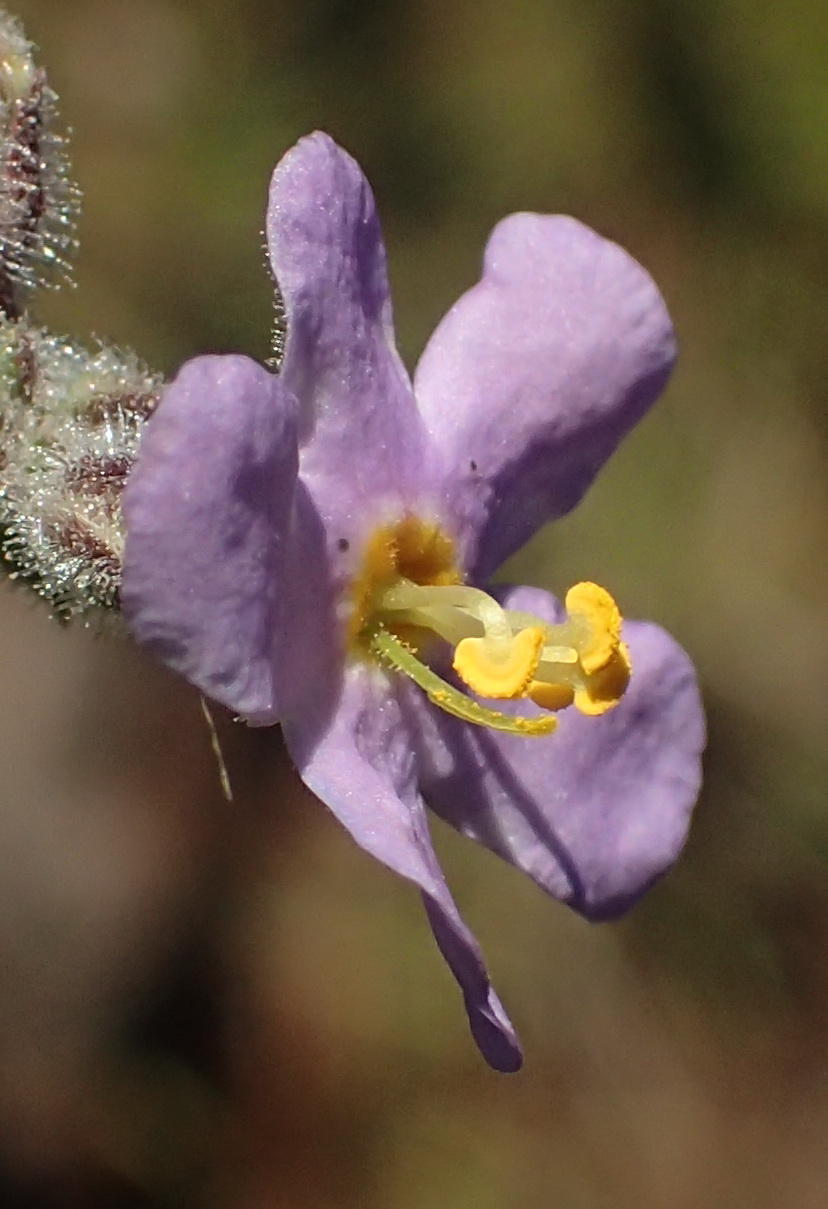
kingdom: Plantae
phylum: Tracheophyta
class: Magnoliopsida
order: Lamiales
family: Scrophulariaceae
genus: Chaenostoma
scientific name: Chaenostoma caeruleum
